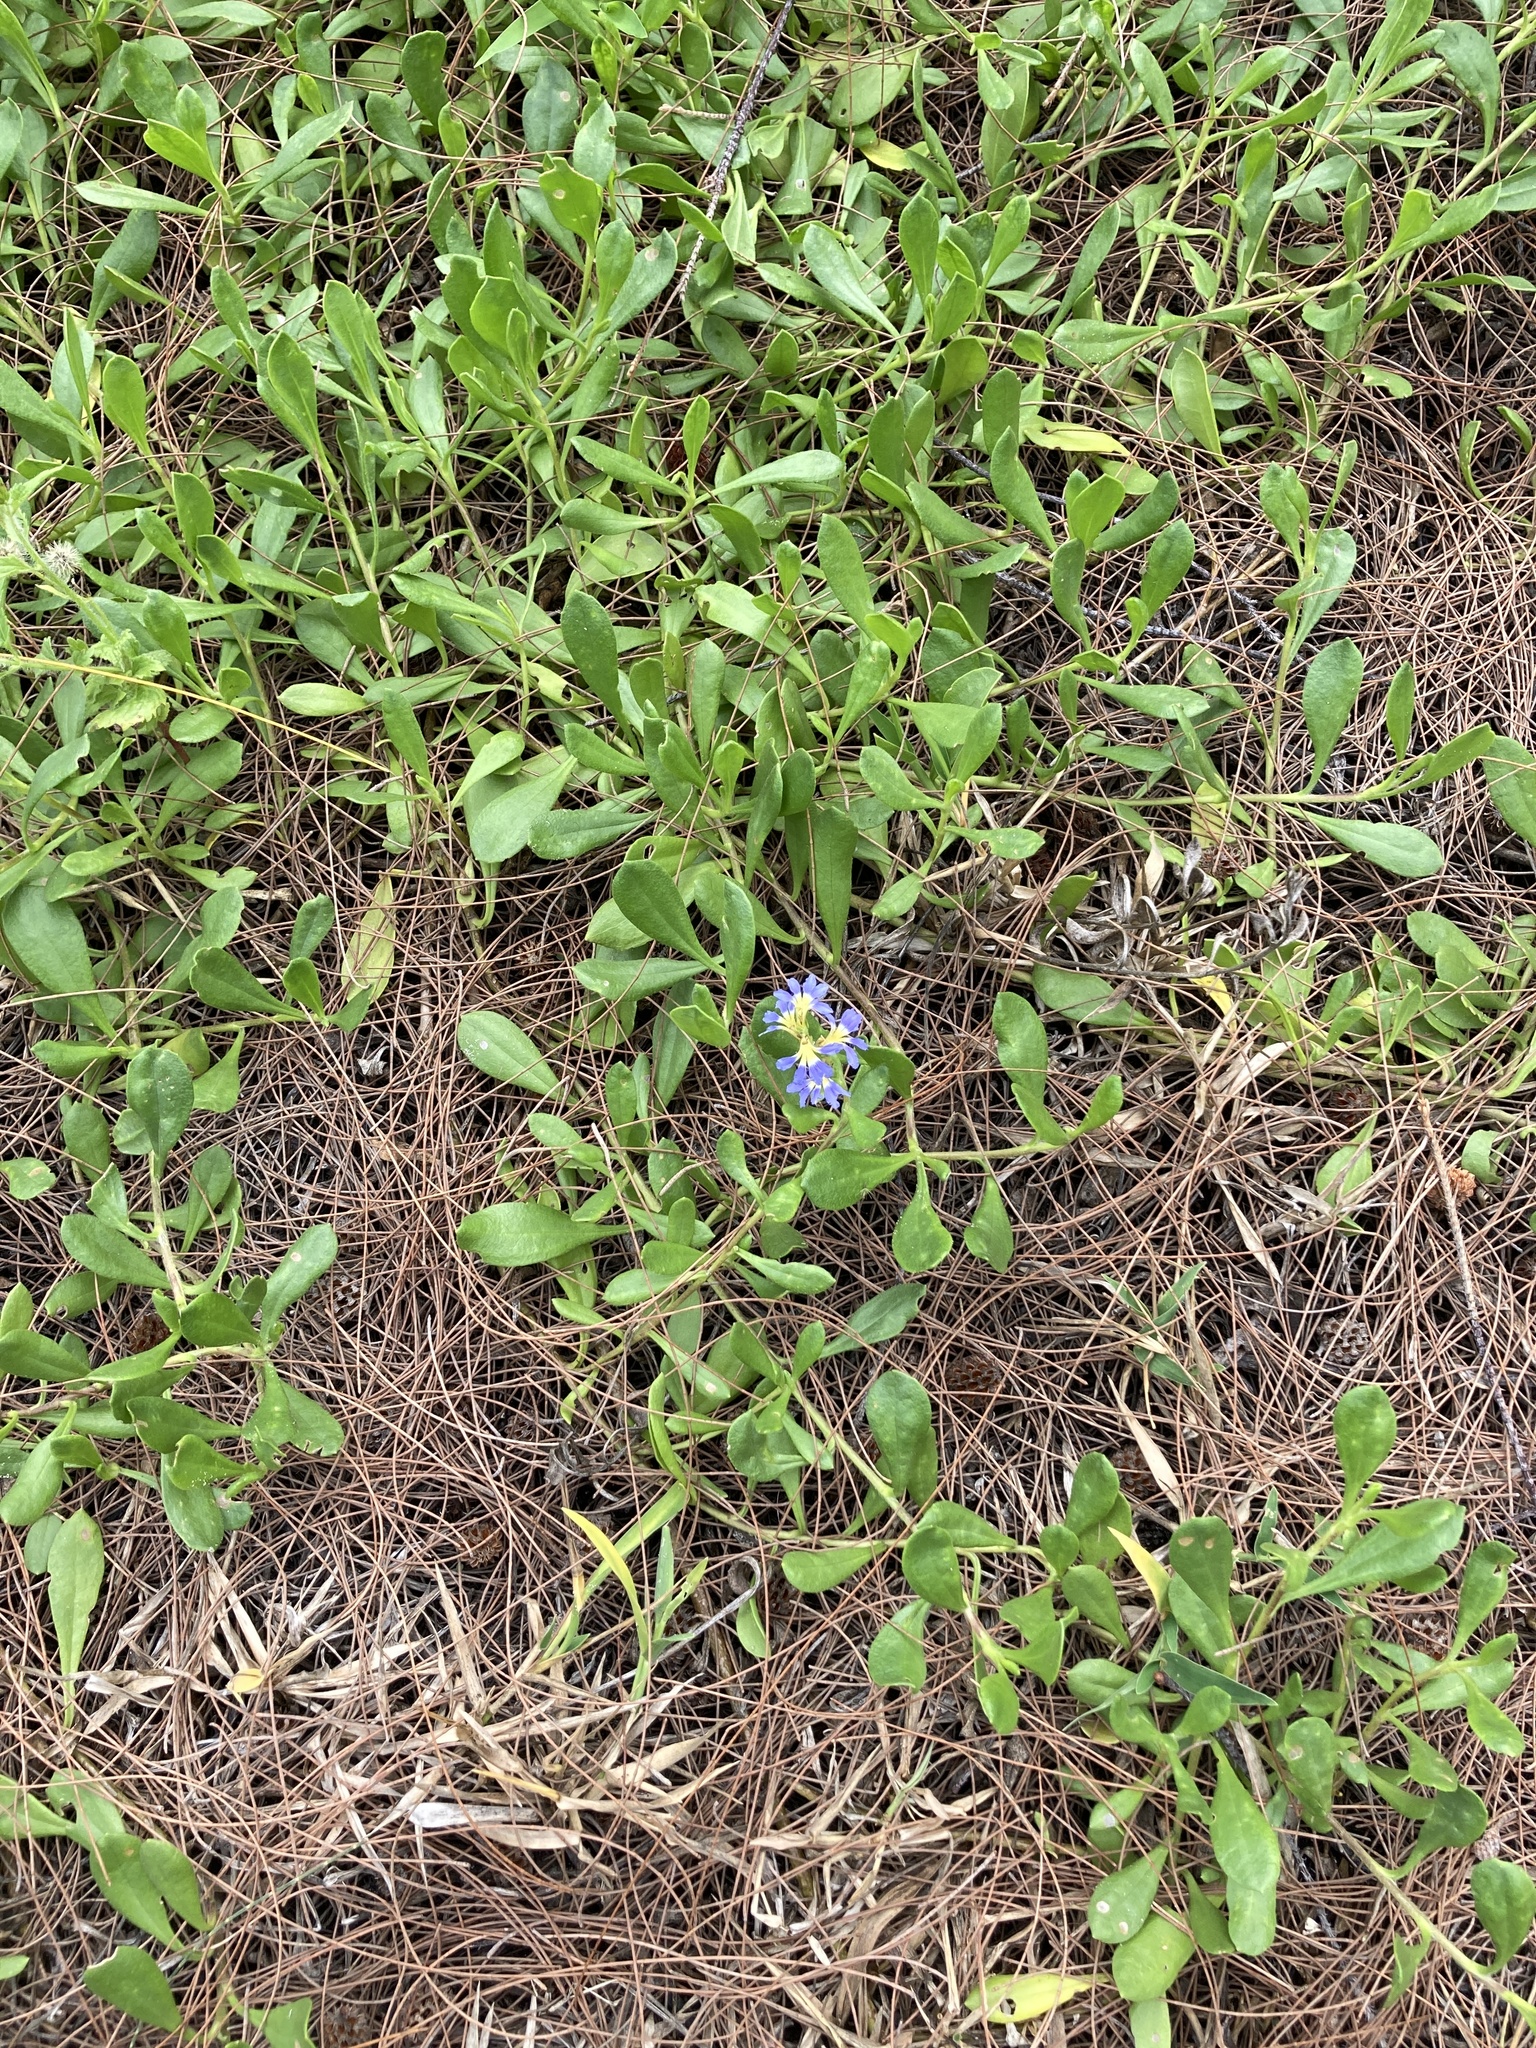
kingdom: Plantae
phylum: Tracheophyta
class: Magnoliopsida
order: Asterales
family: Goodeniaceae
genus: Scaevola
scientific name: Scaevola calendulacea
